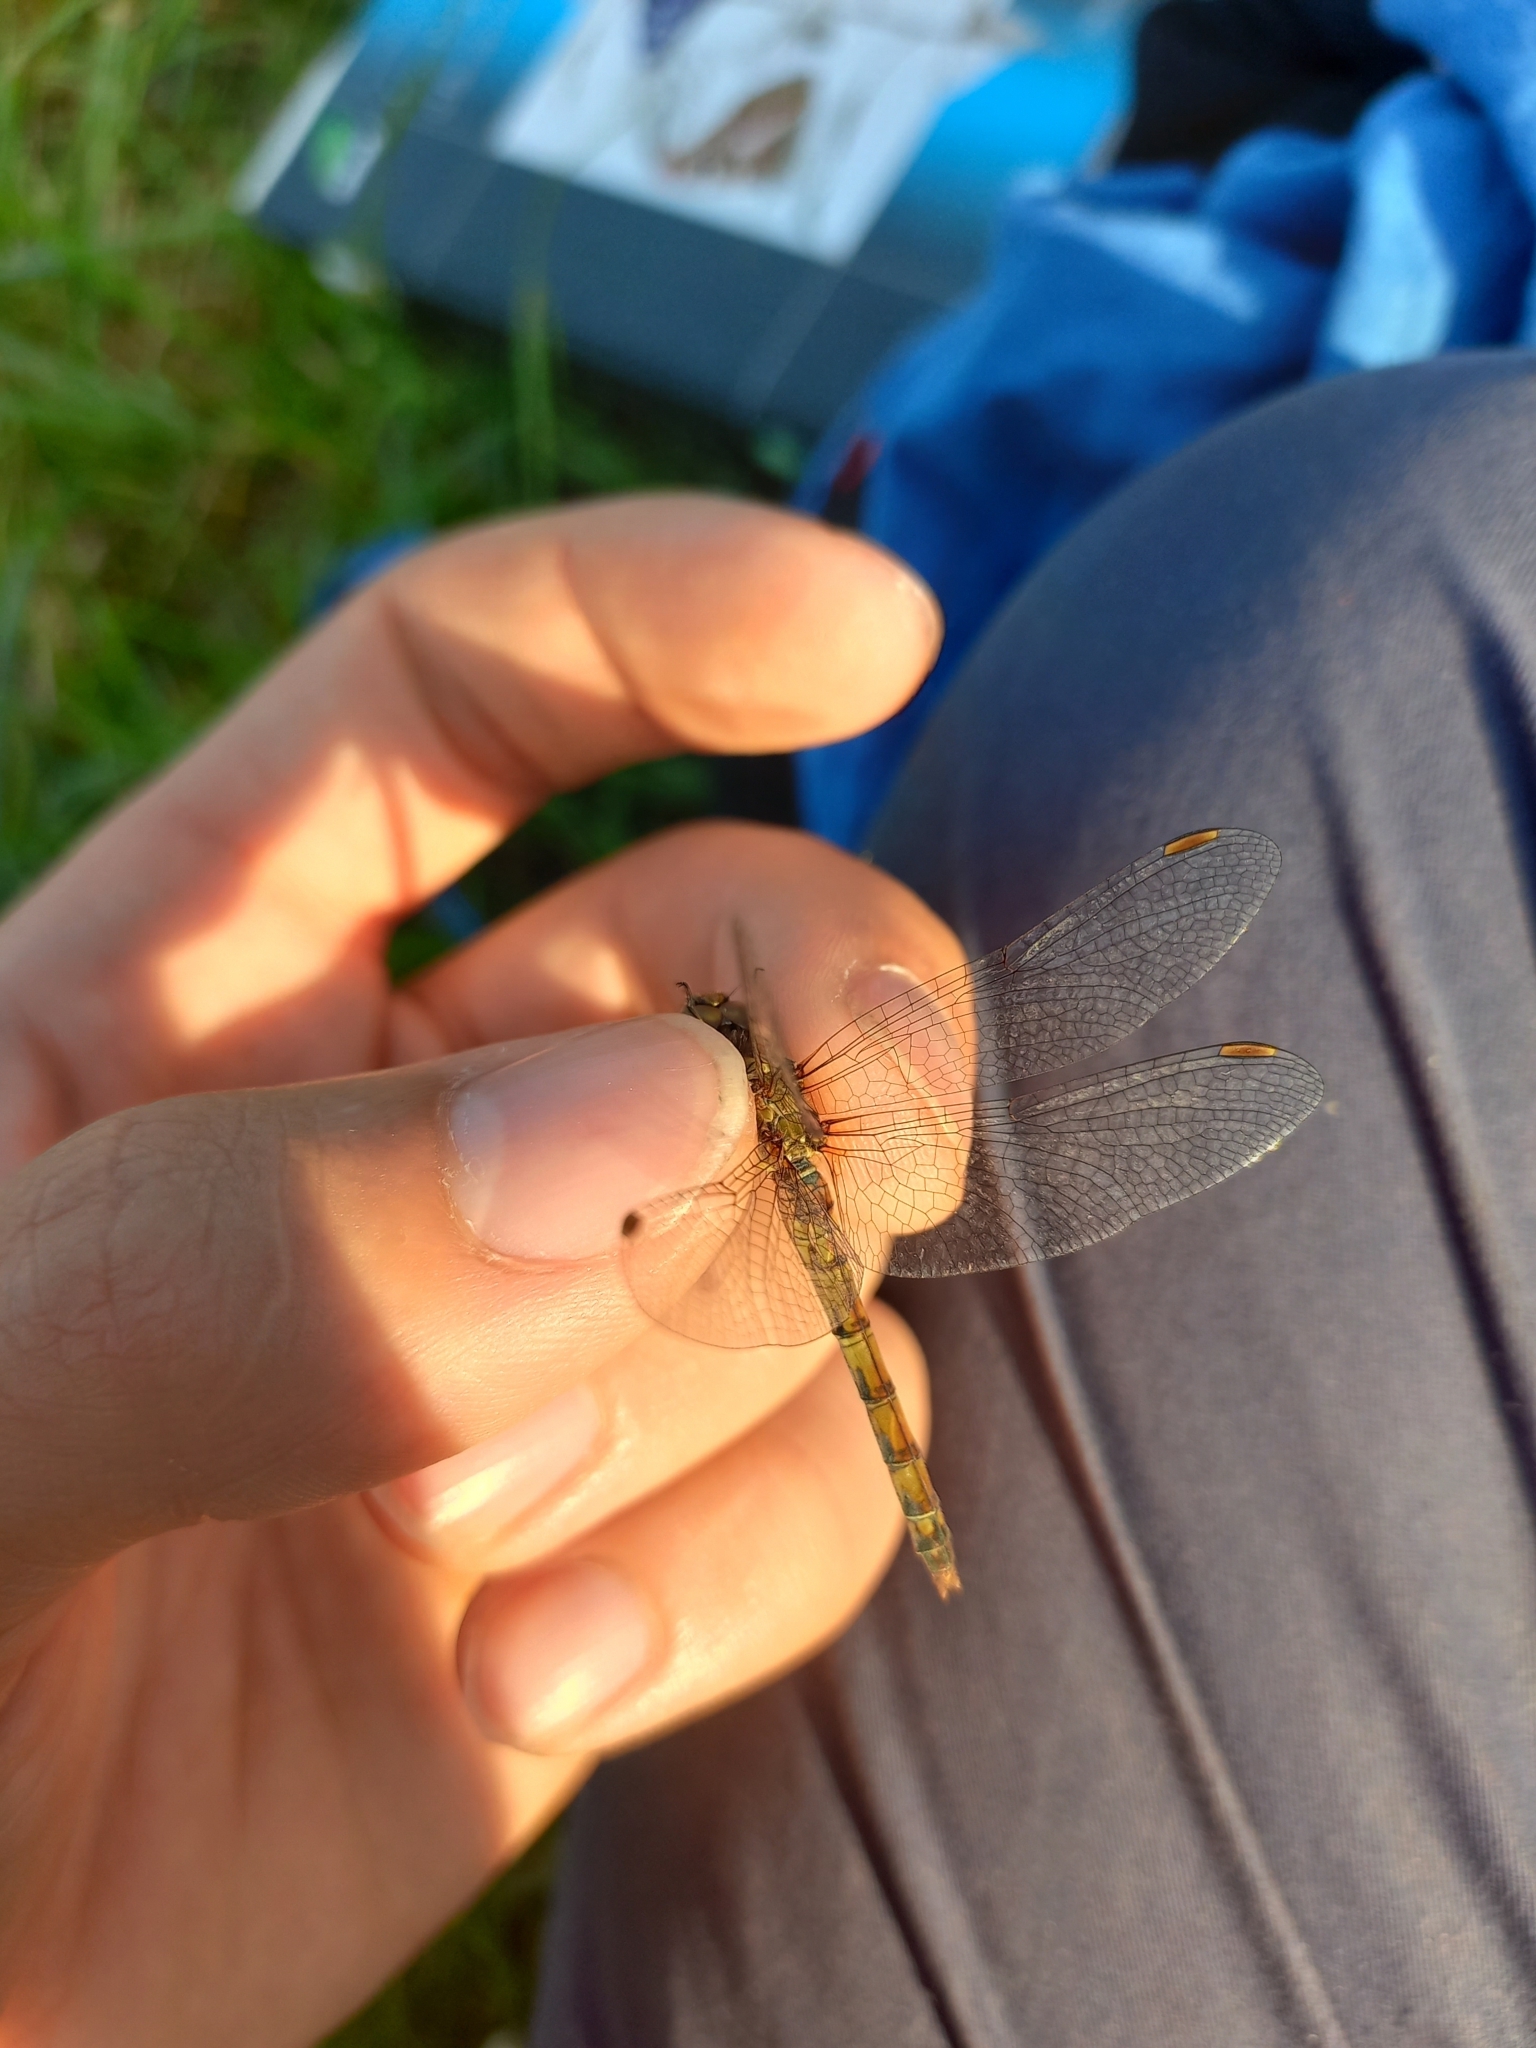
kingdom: Animalia
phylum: Arthropoda
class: Insecta
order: Odonata
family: Libellulidae
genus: Sympetrum
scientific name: Sympetrum striolatum
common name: Common darter
